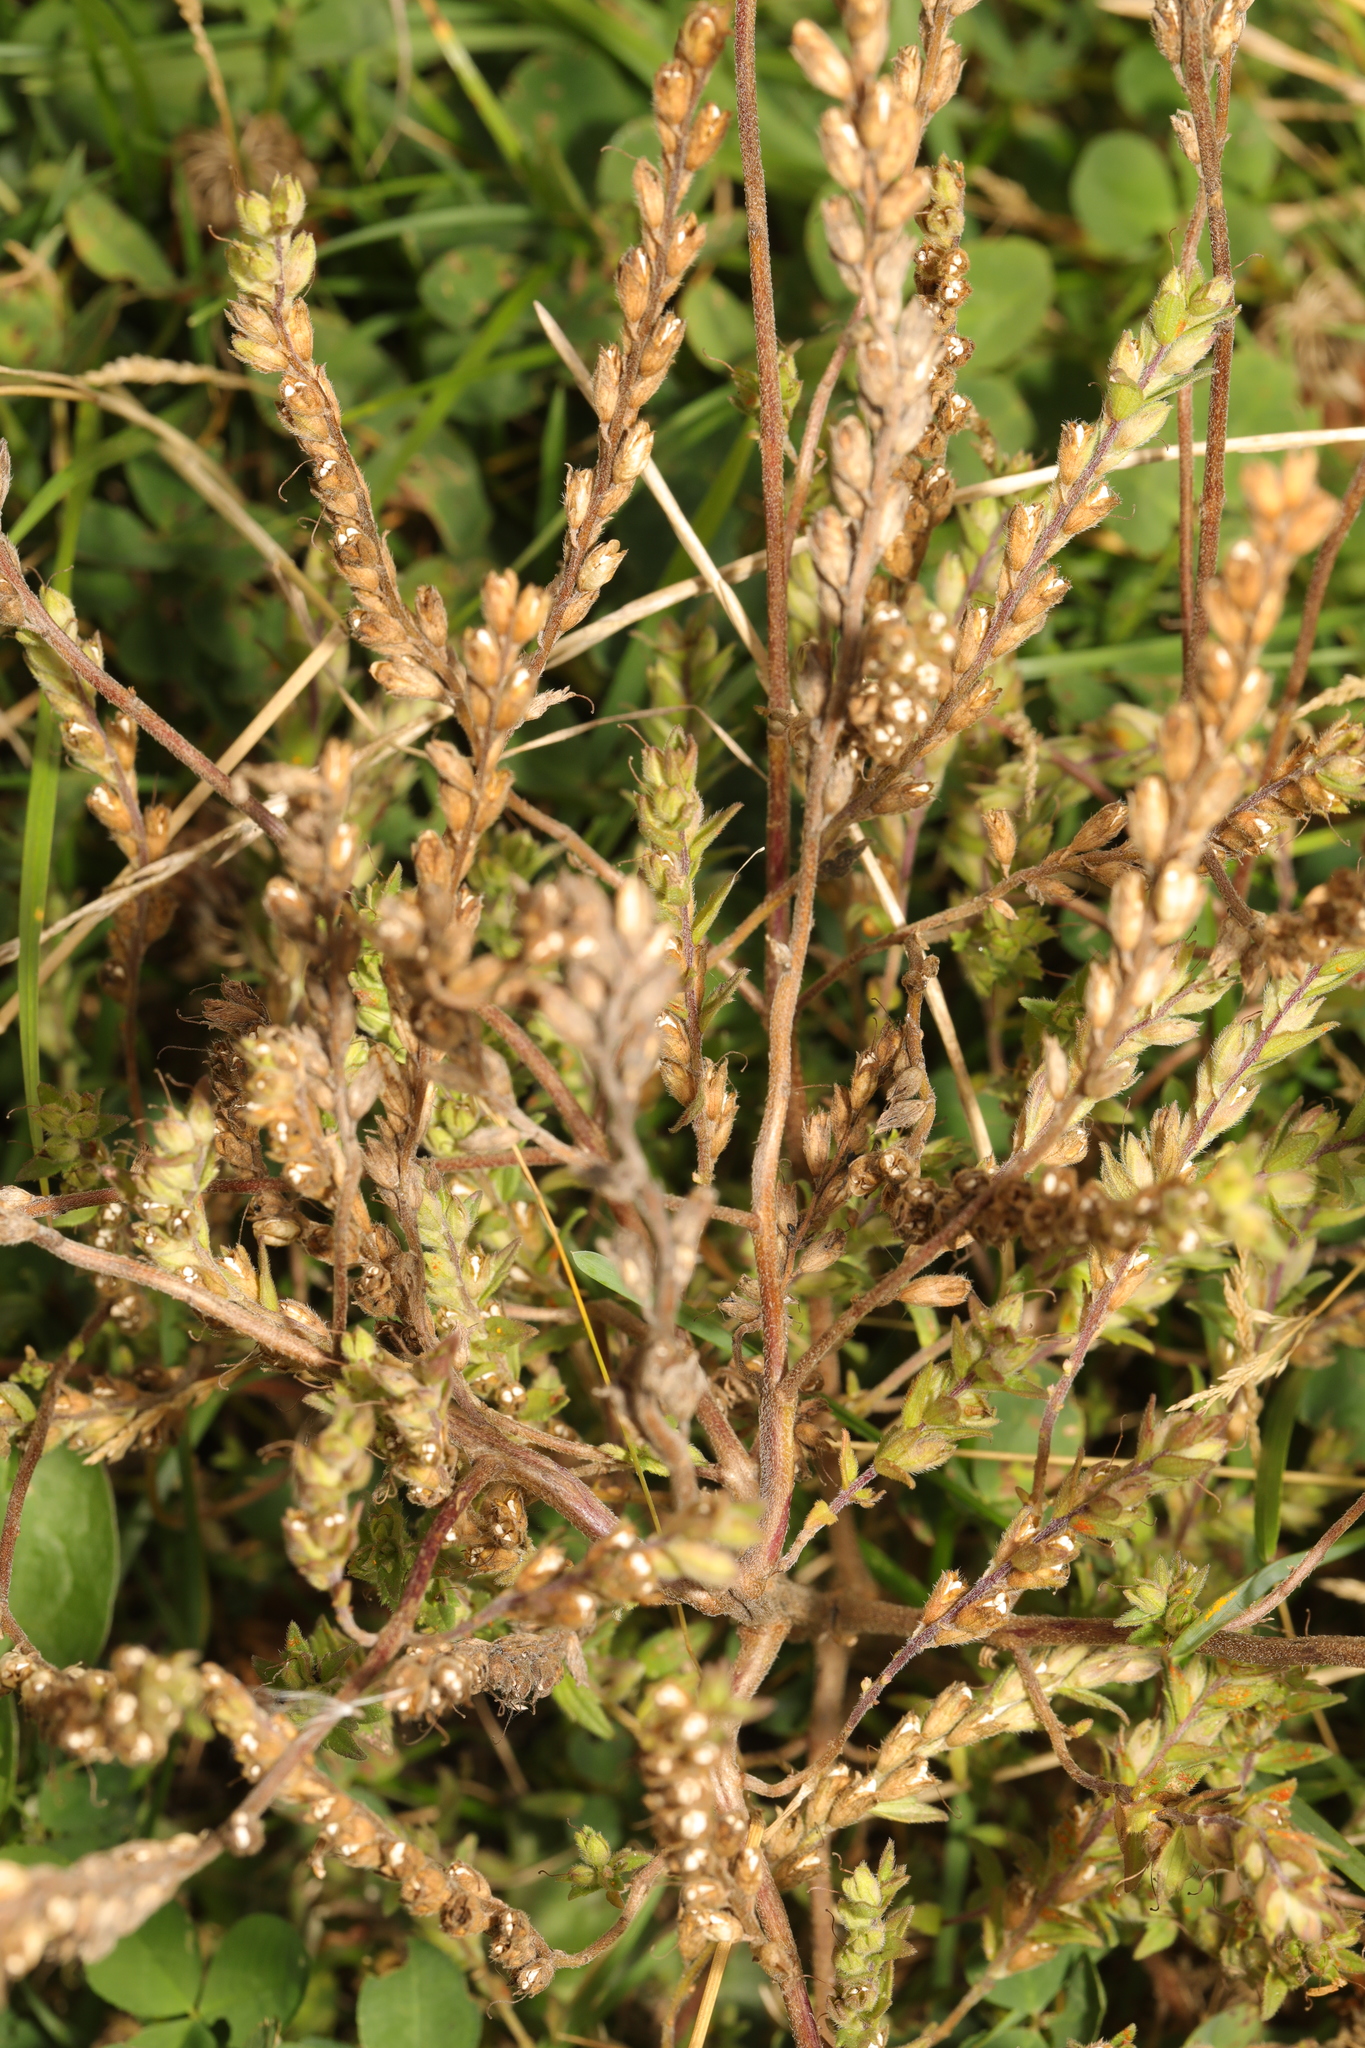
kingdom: Plantae
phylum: Tracheophyta
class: Magnoliopsida
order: Lamiales
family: Orobanchaceae
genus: Odontites
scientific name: Odontites vulgaris
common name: Broomrape
